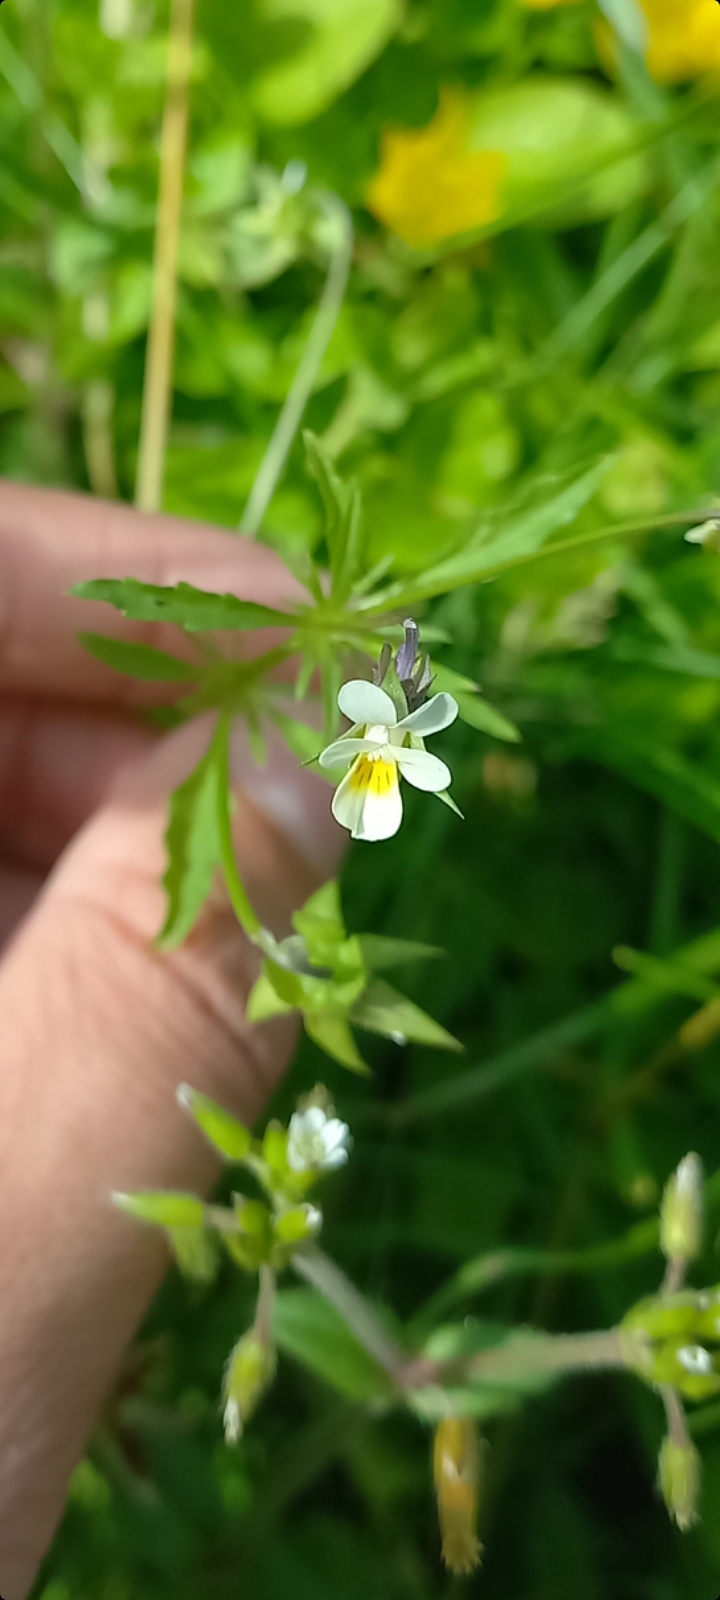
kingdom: Plantae
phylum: Tracheophyta
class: Magnoliopsida
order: Malpighiales
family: Violaceae
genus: Viola
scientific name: Viola arvensis
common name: Field pansy
